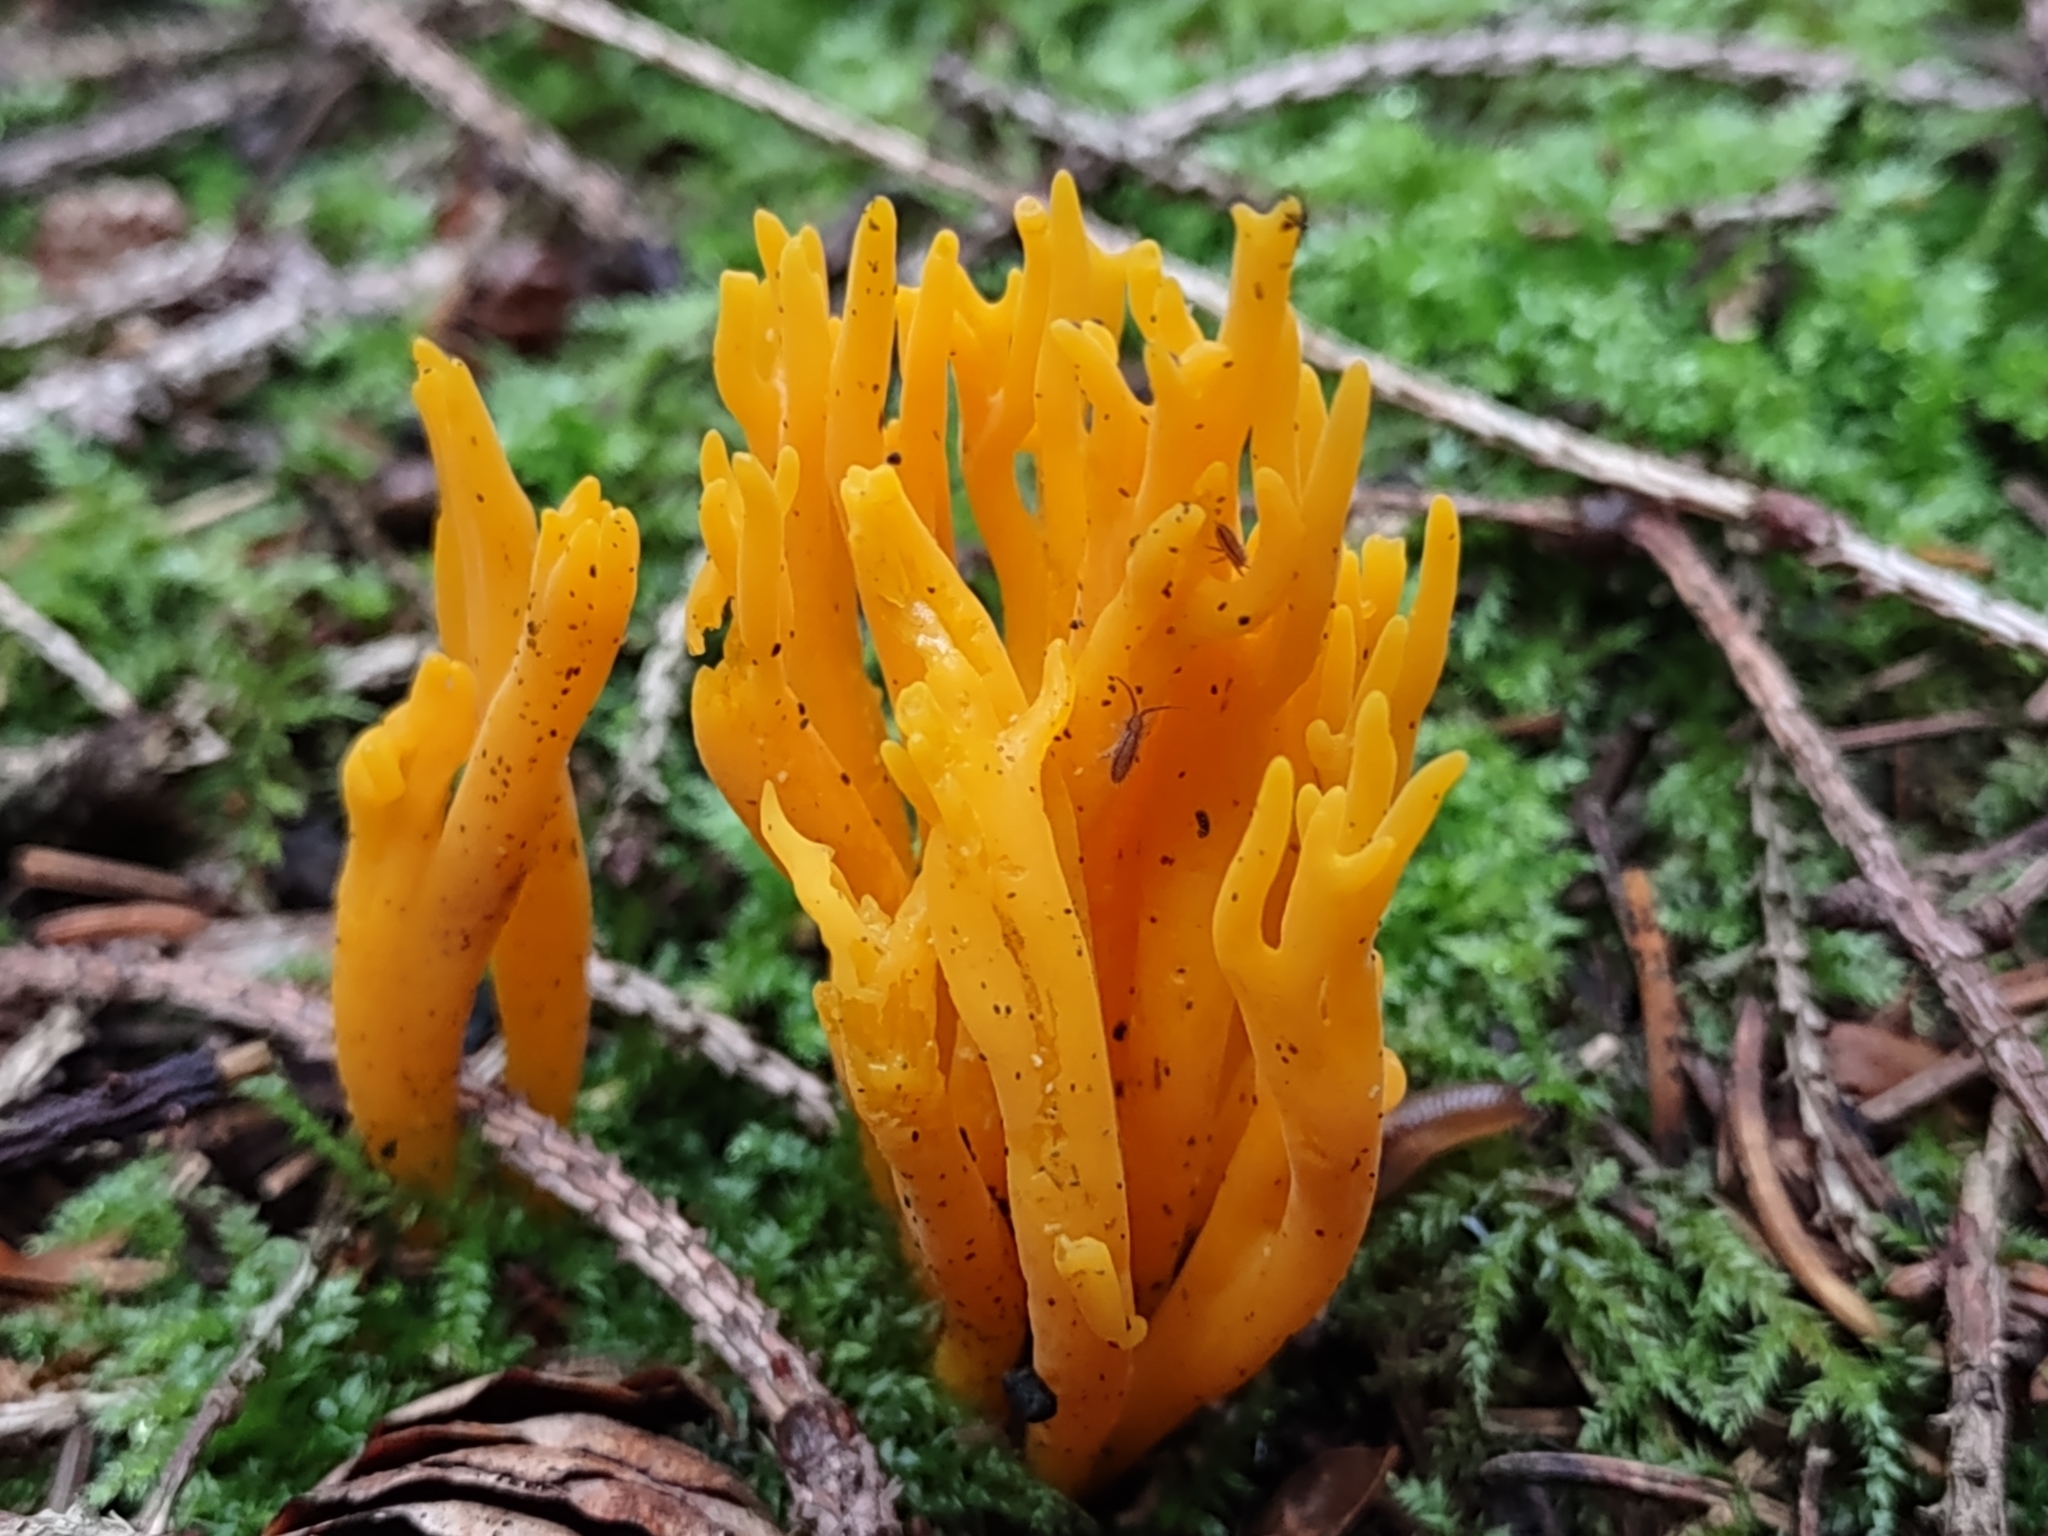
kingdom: Fungi
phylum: Basidiomycota
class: Dacrymycetes
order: Dacrymycetales
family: Dacrymycetaceae
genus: Calocera
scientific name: Calocera viscosa
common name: Yellow stagshorn
